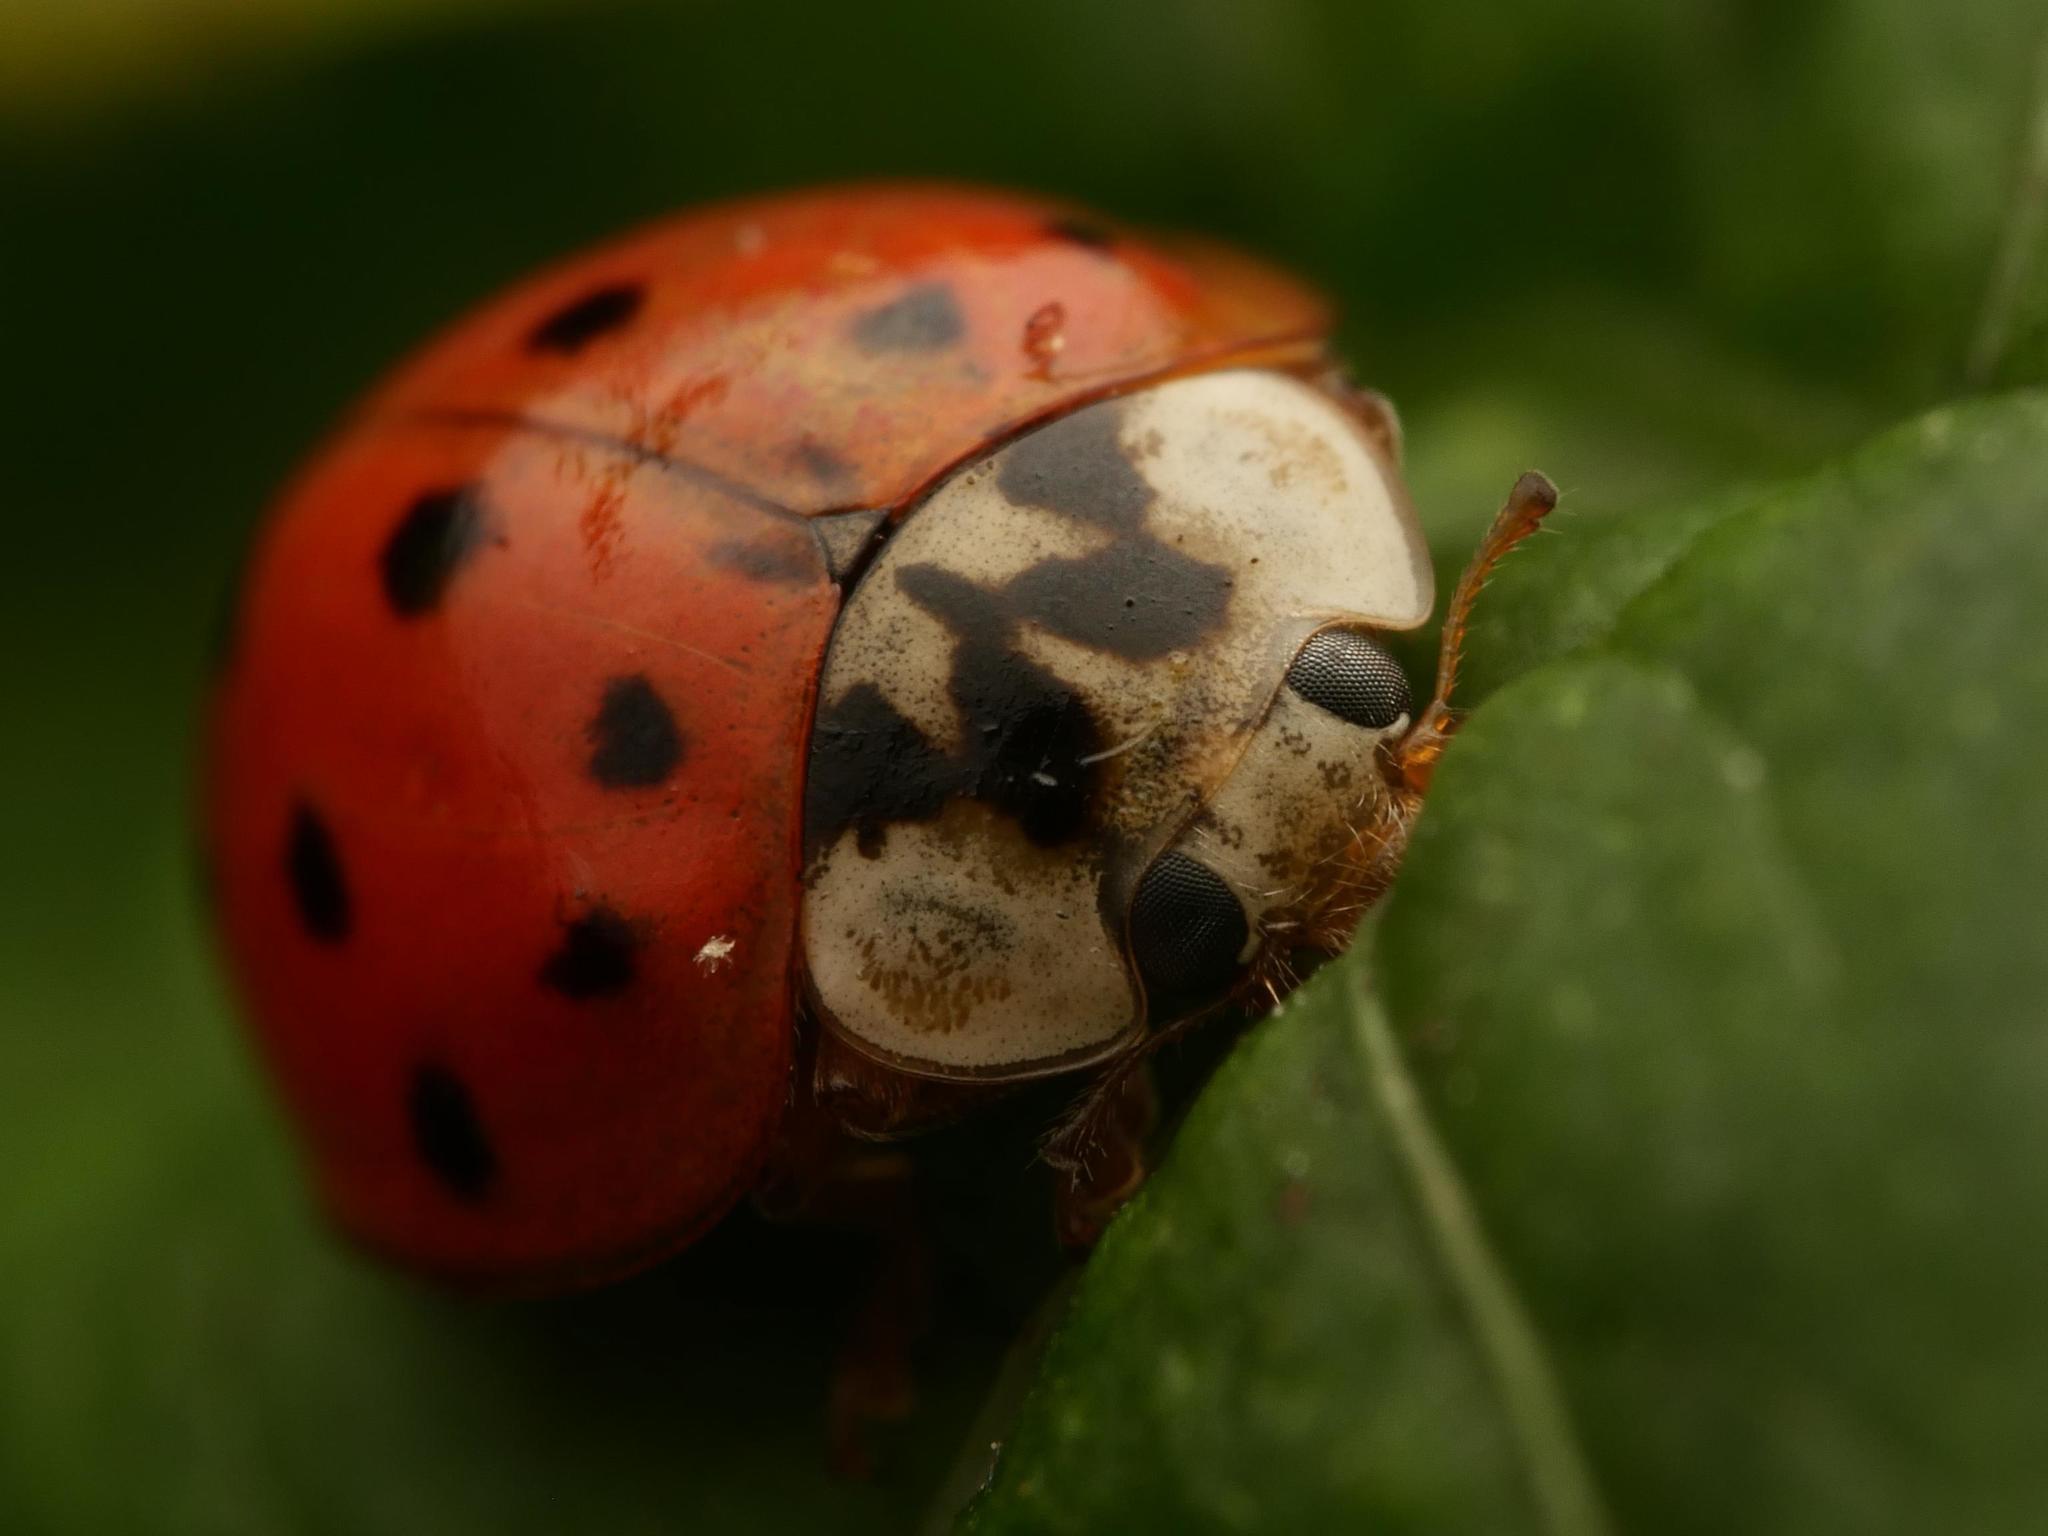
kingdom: Animalia
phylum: Arthropoda
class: Insecta
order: Coleoptera
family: Coccinellidae
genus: Harmonia
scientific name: Harmonia axyridis
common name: Harlequin ladybird
